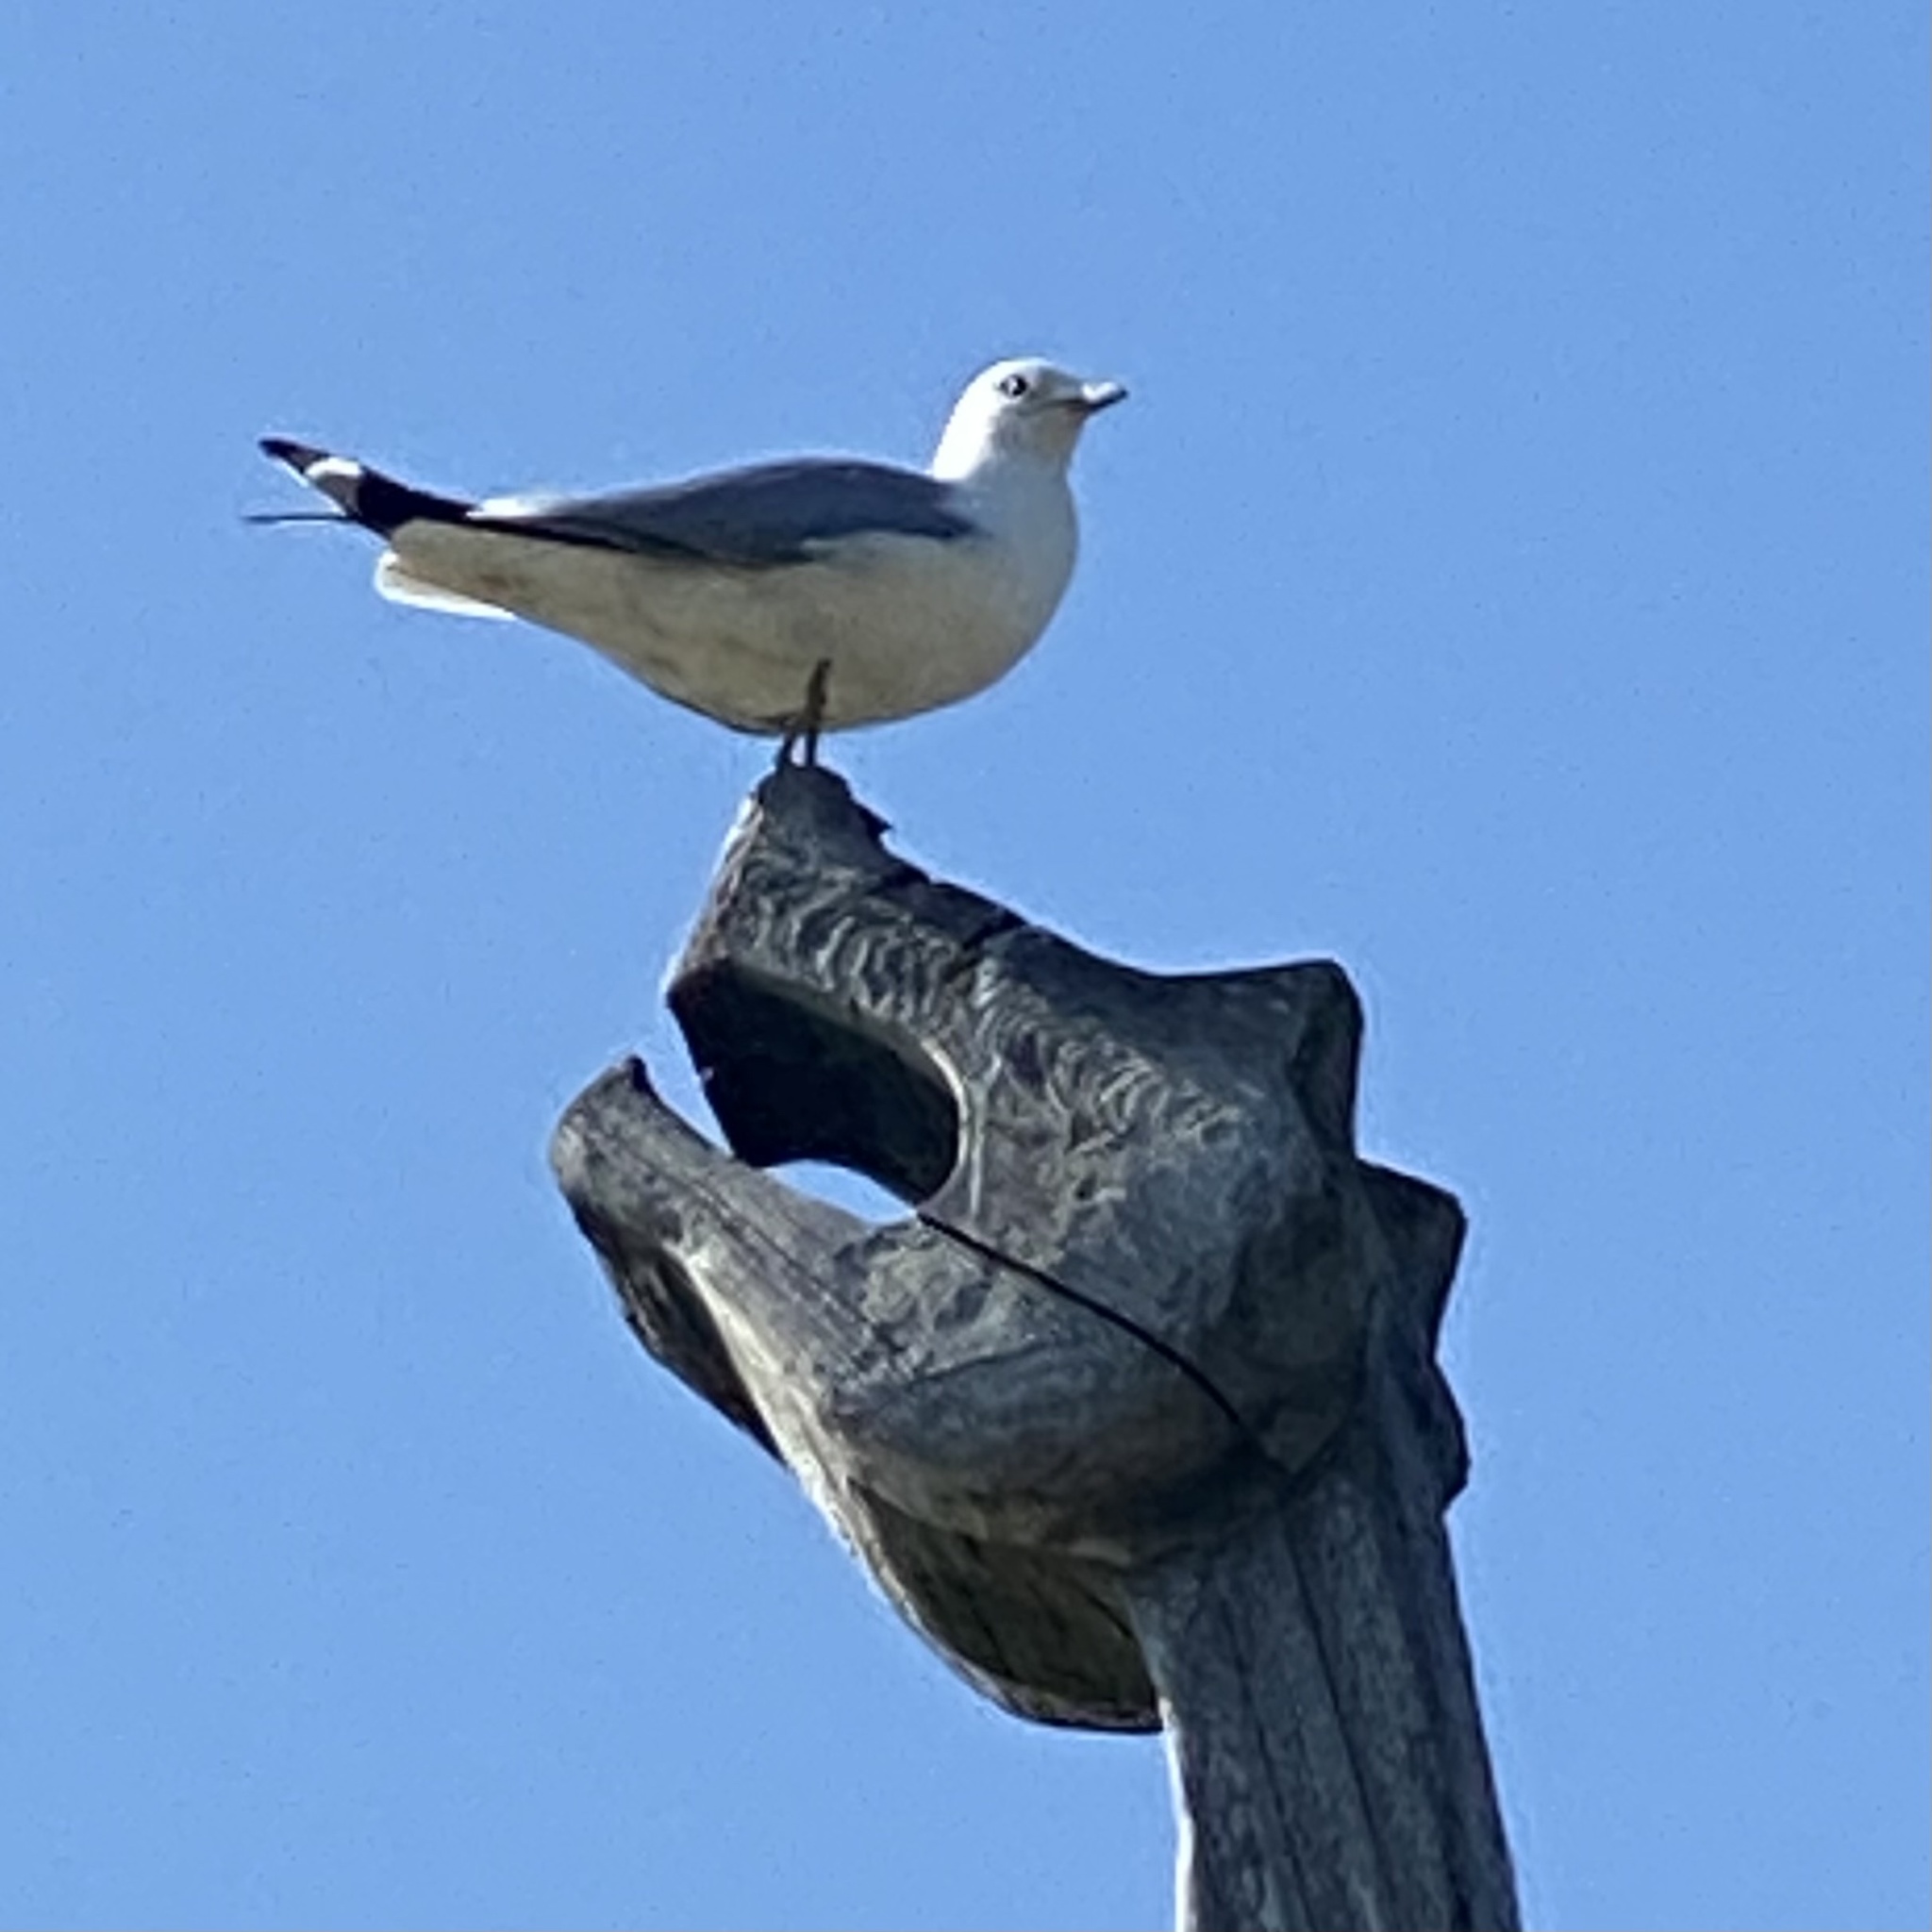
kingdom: Animalia
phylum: Chordata
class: Aves
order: Charadriiformes
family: Laridae
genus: Larus
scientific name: Larus canus
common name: Mew gull
